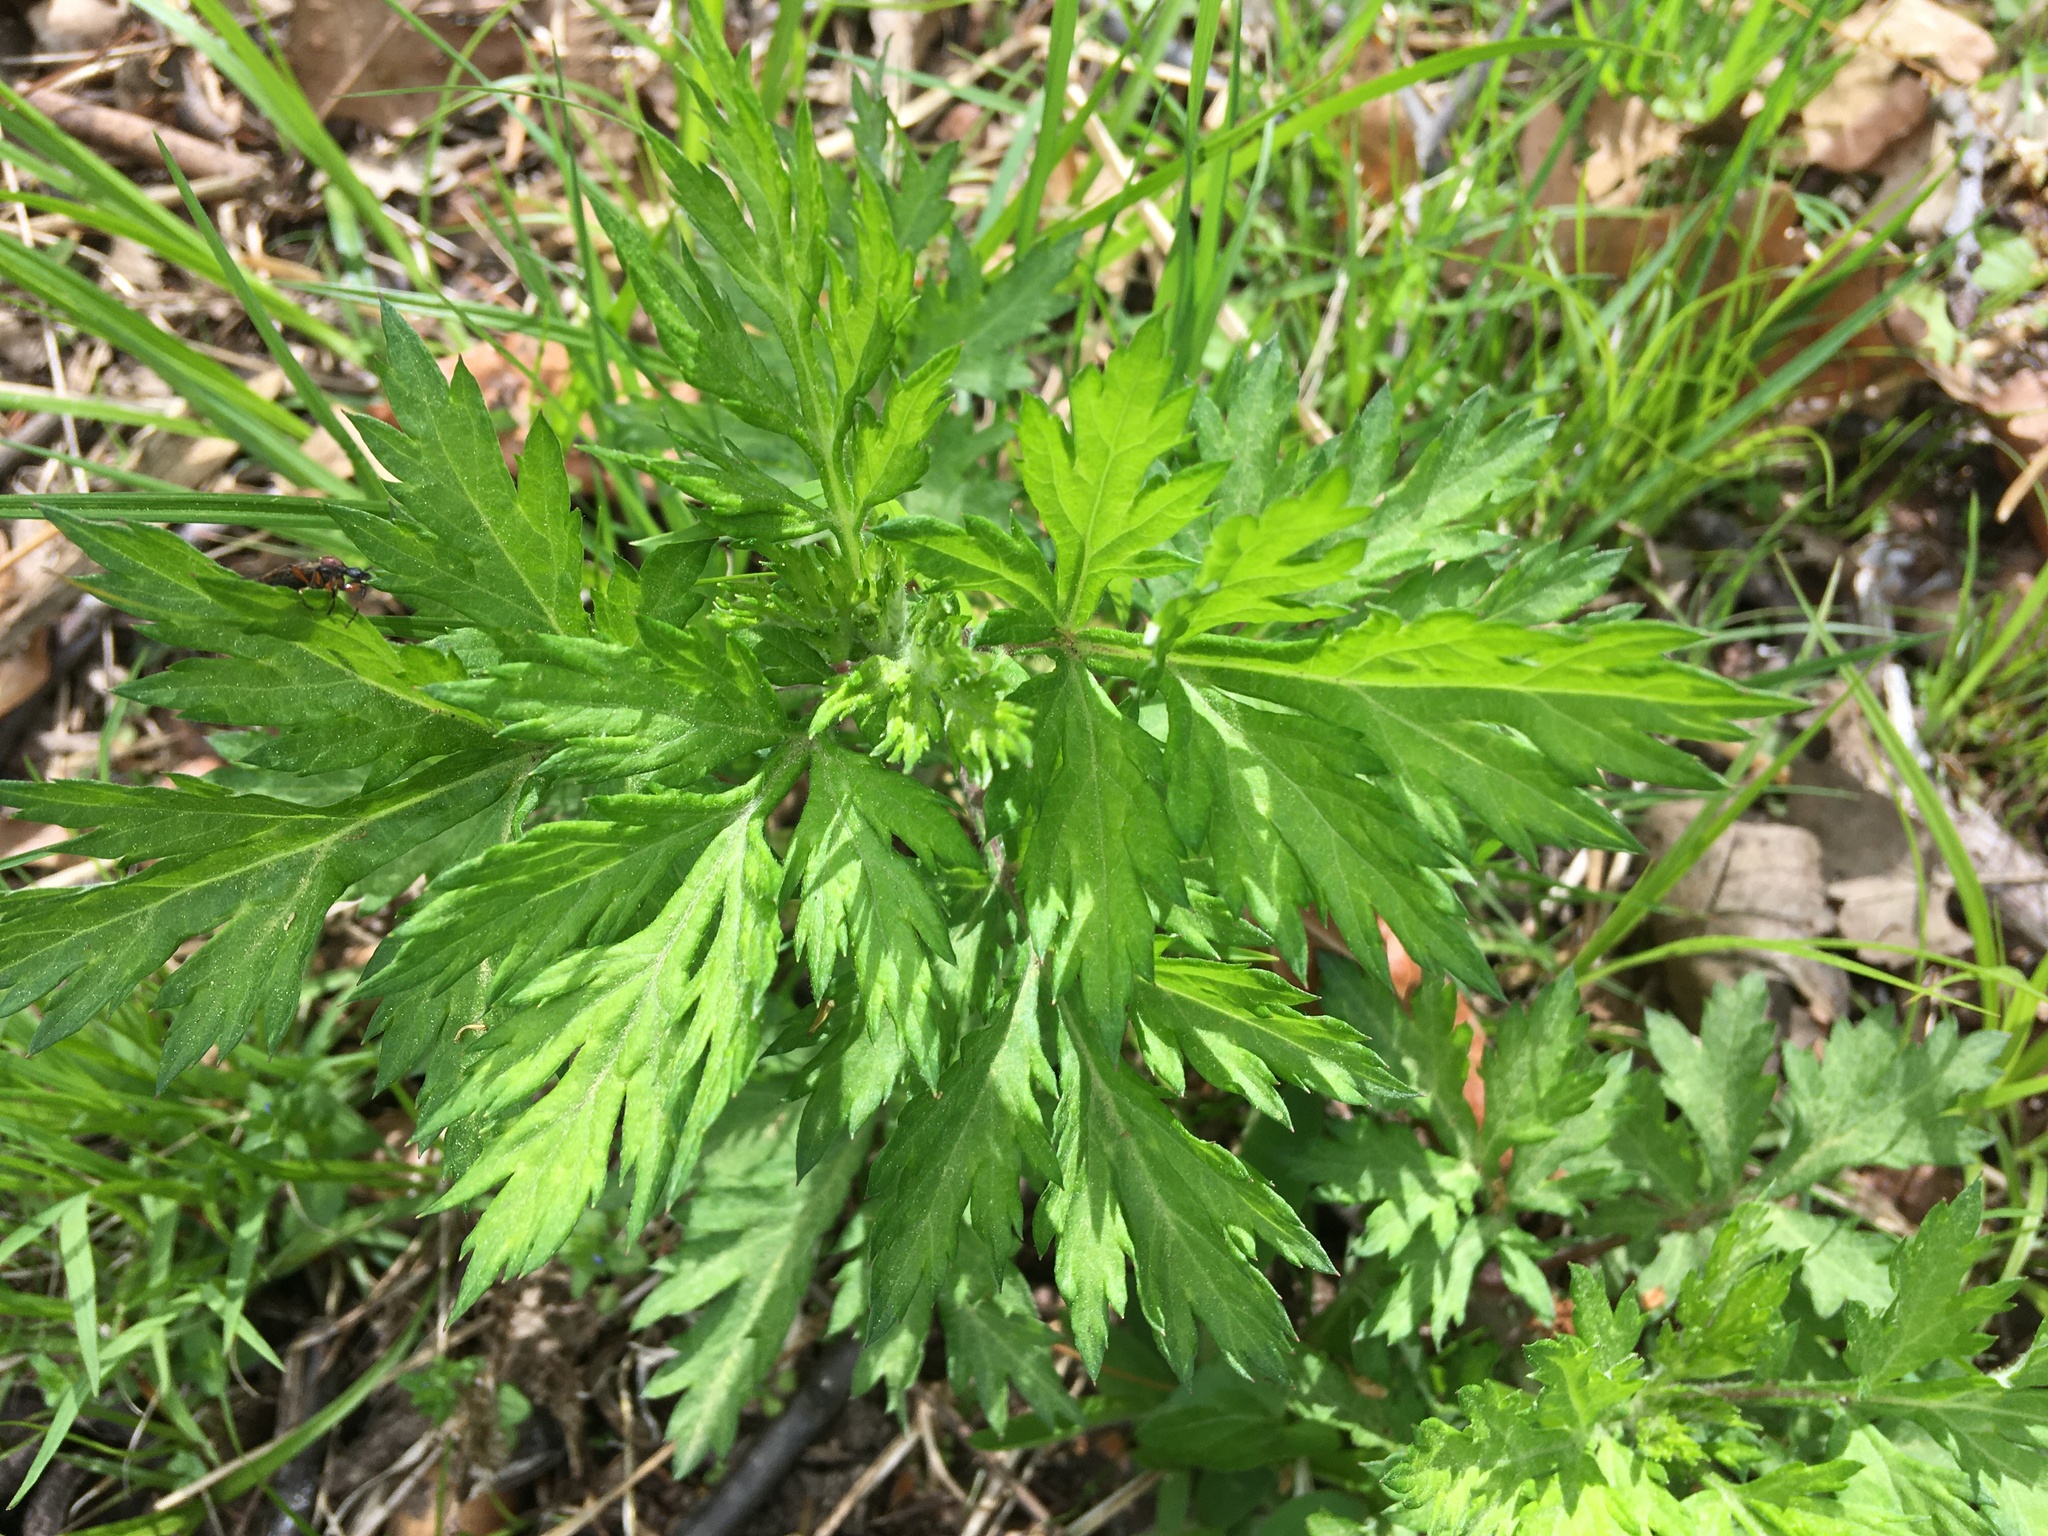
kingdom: Plantae
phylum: Tracheophyta
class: Magnoliopsida
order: Asterales
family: Asteraceae
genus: Artemisia
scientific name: Artemisia vulgaris
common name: Mugwort
